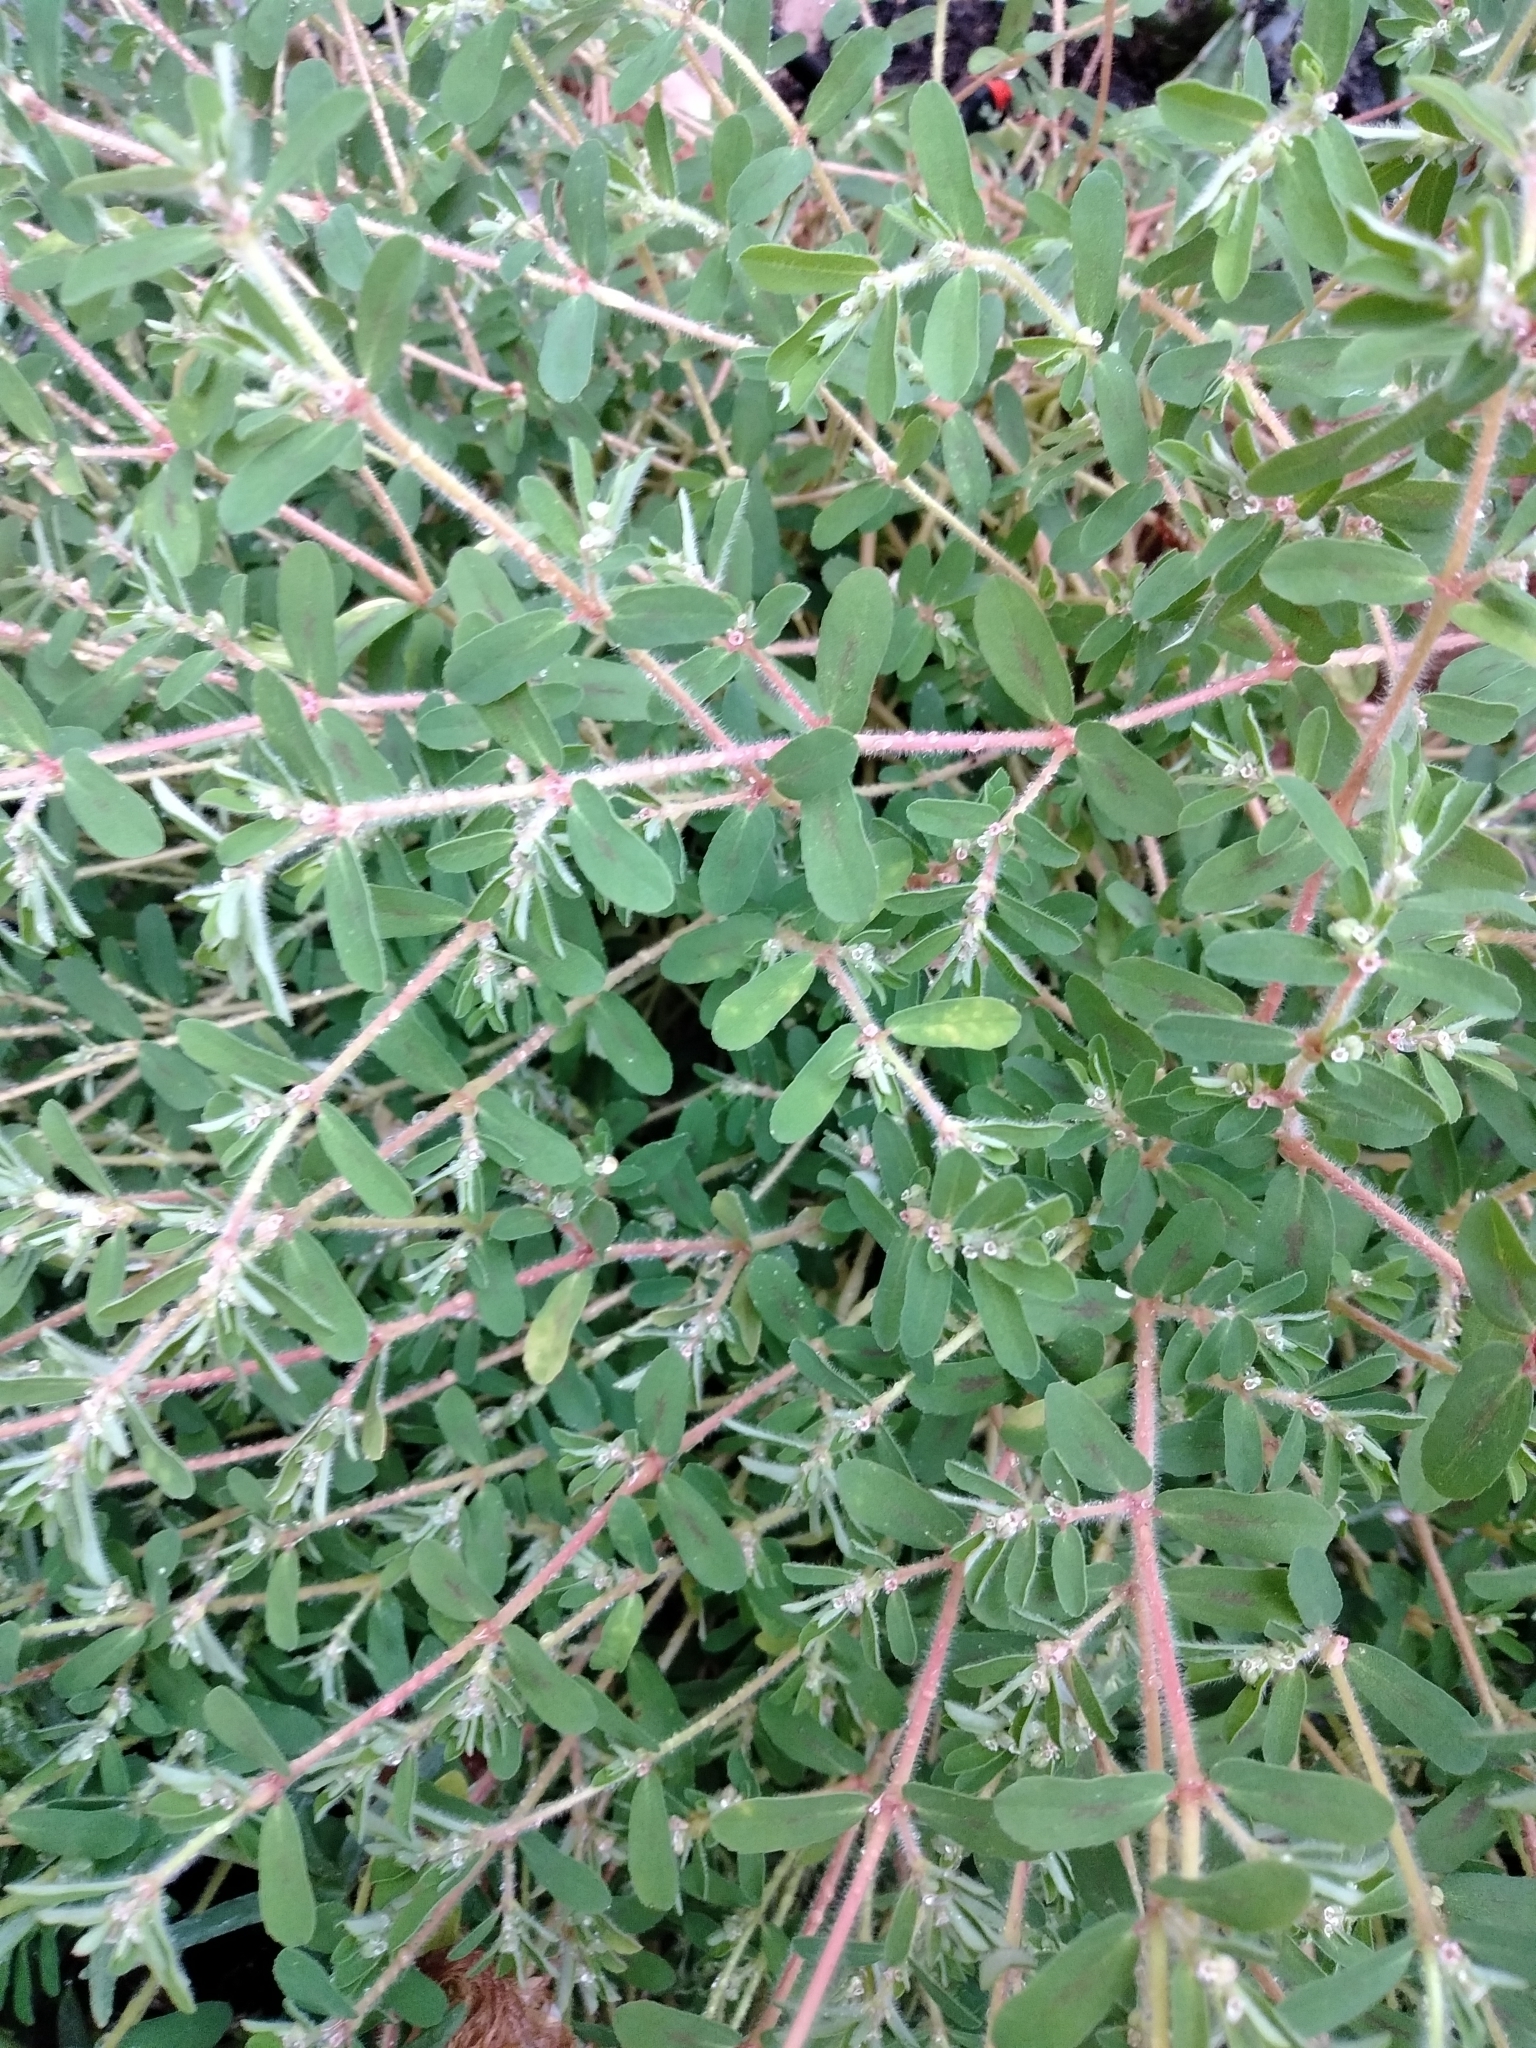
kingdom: Plantae
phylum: Tracheophyta
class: Magnoliopsida
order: Malpighiales
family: Euphorbiaceae
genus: Euphorbia
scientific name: Euphorbia maculata
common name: Spotted spurge
